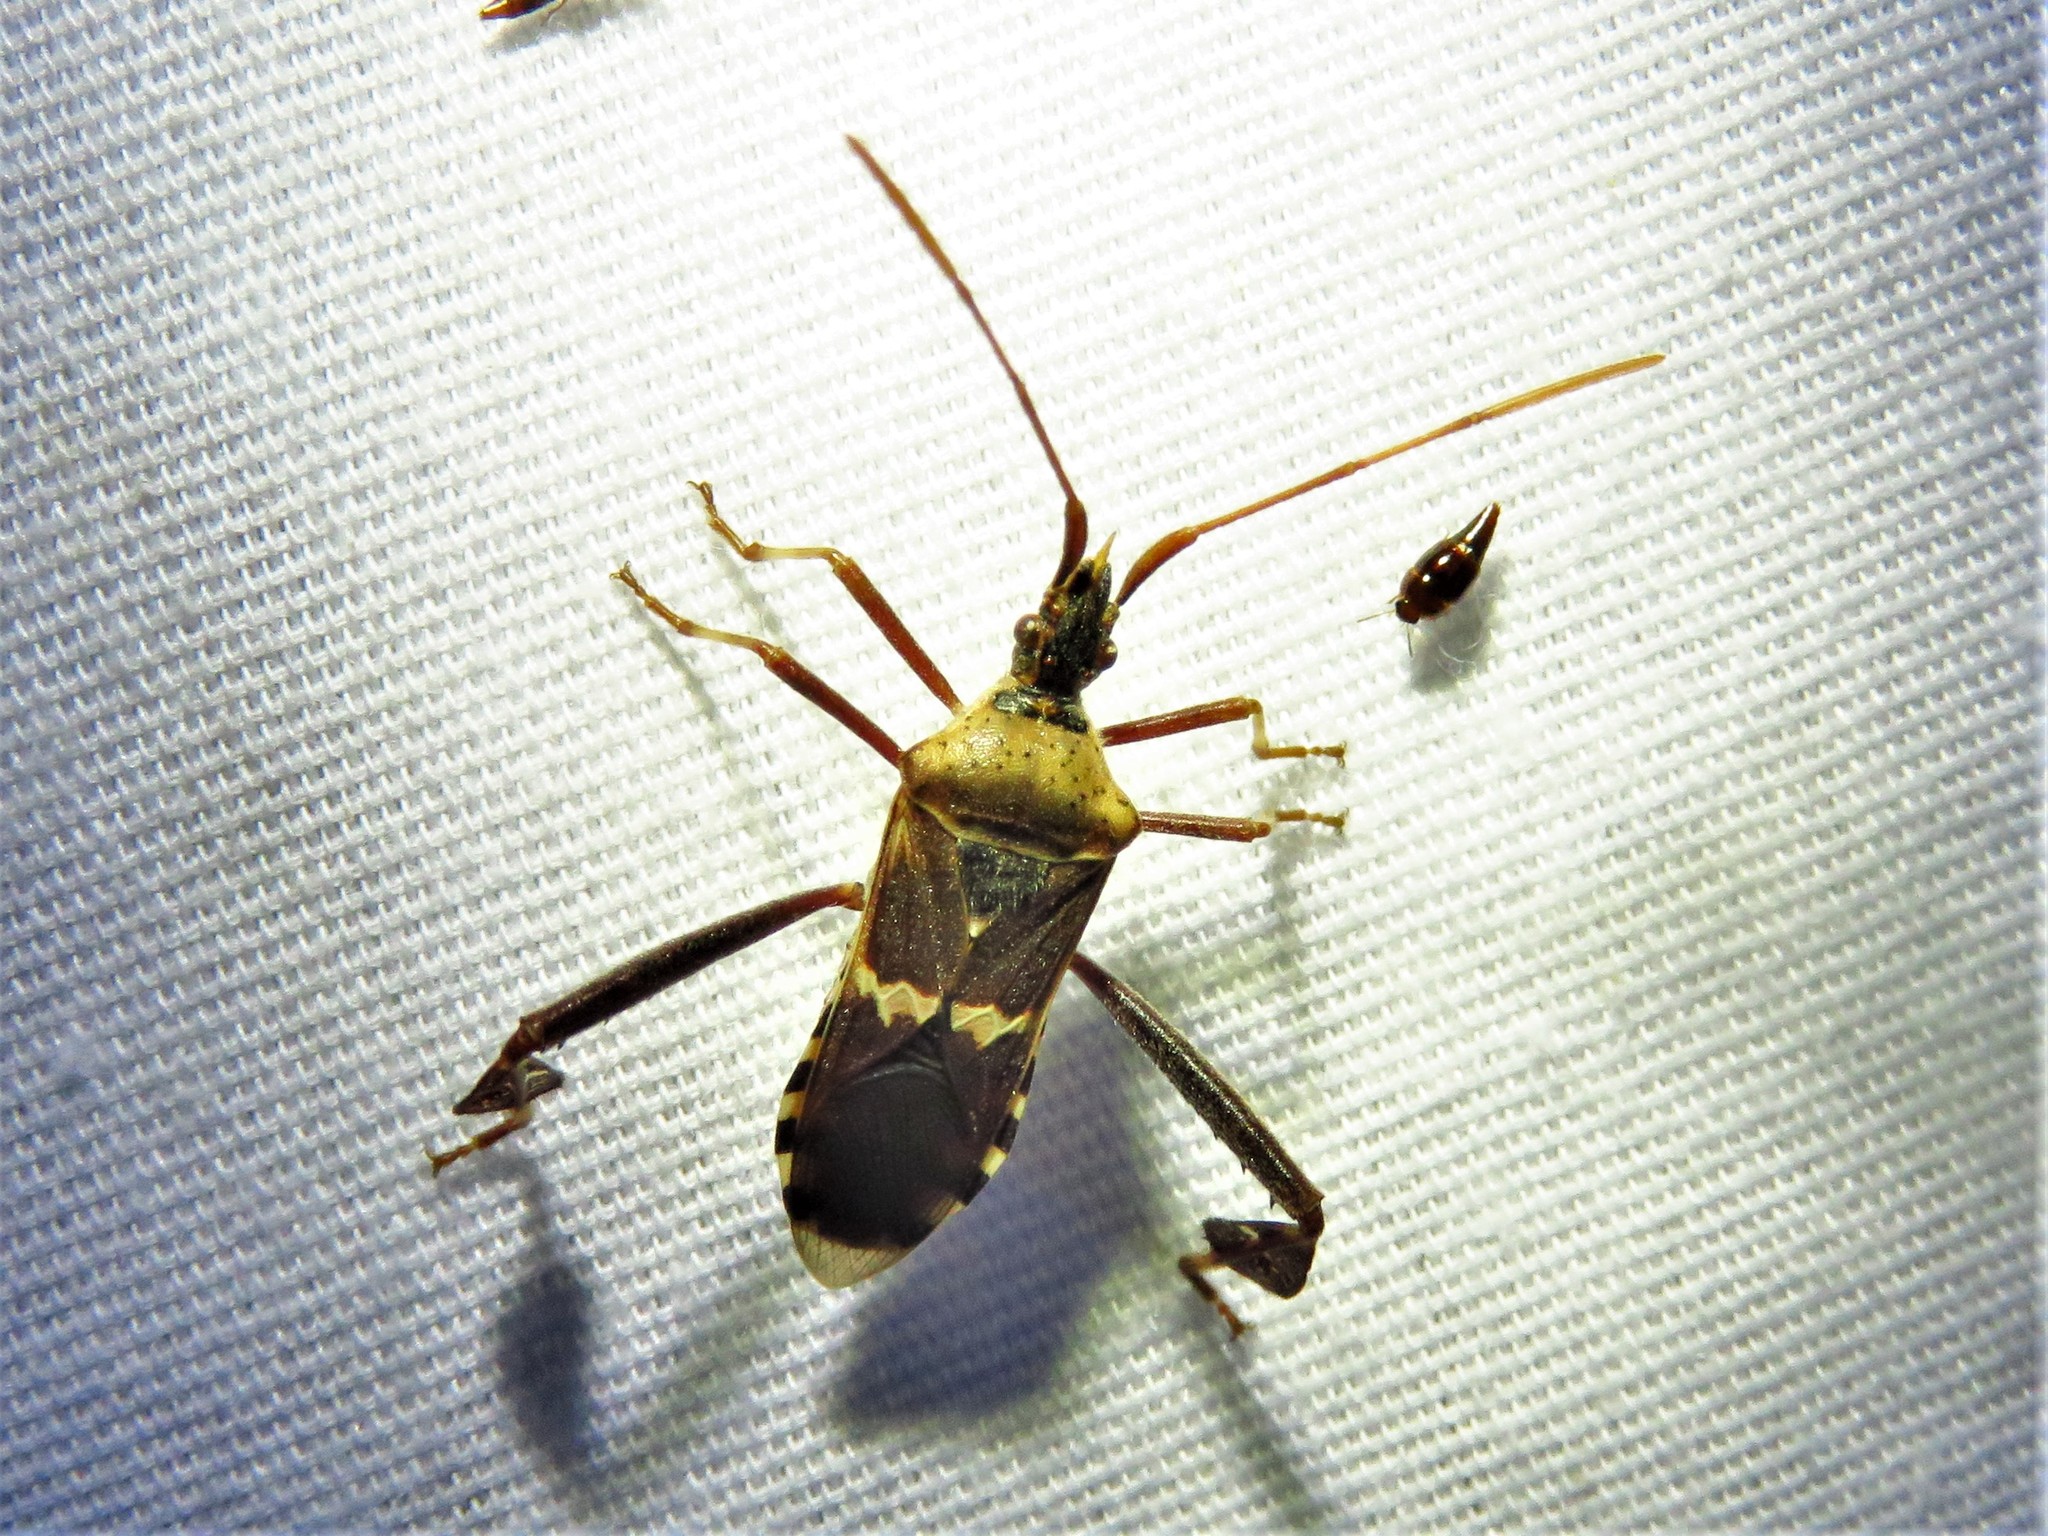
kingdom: Animalia
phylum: Arthropoda
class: Insecta
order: Hemiptera
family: Coreidae
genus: Leptoglossus
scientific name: Leptoglossus clypealis
